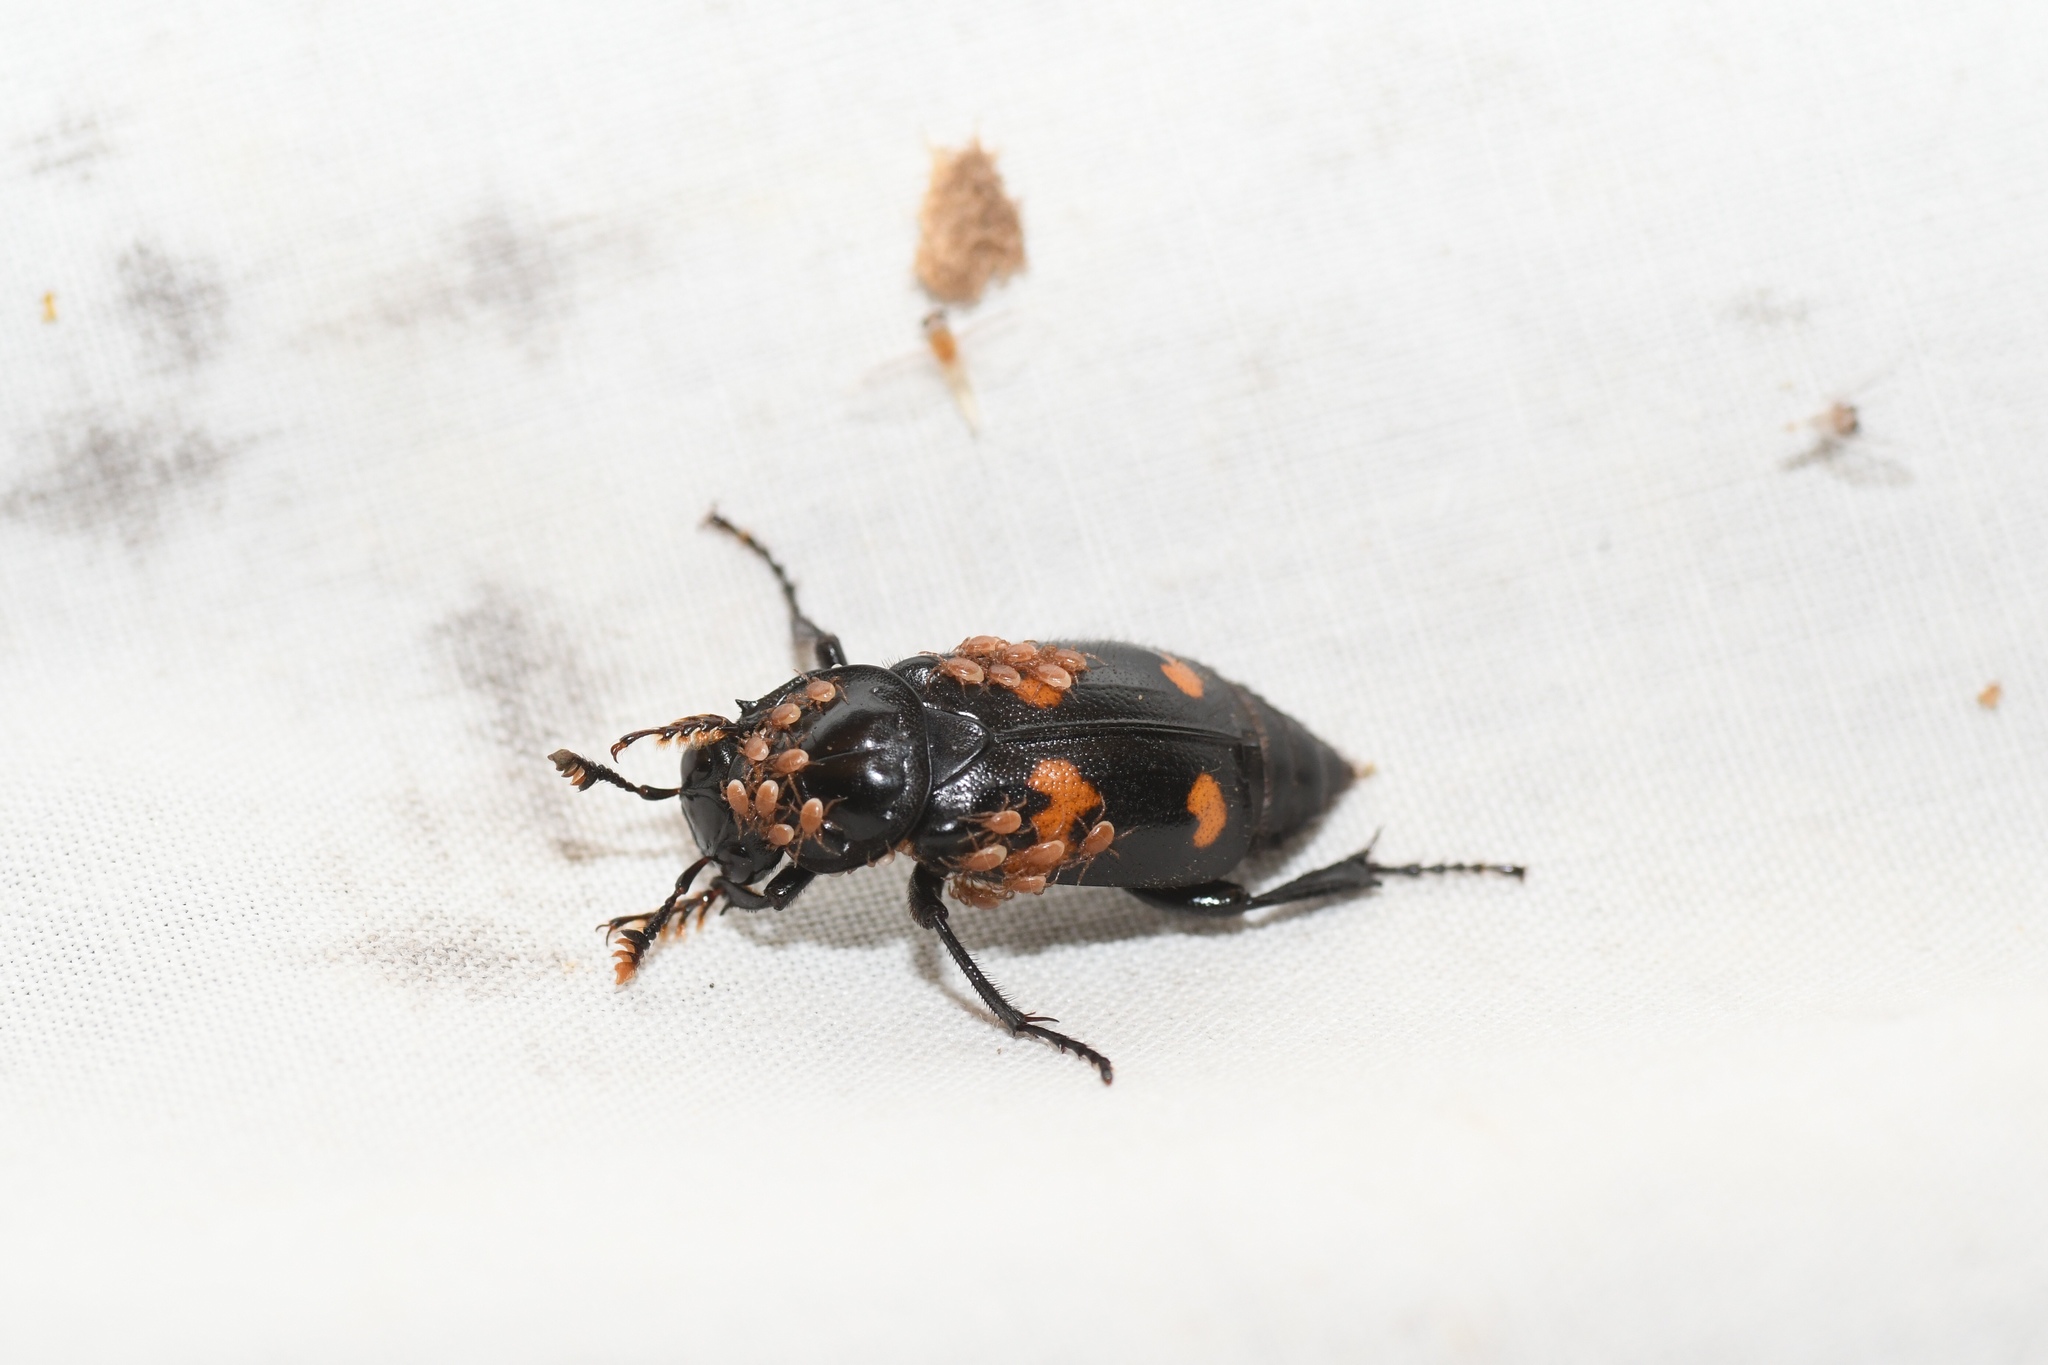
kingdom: Animalia
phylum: Arthropoda
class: Insecta
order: Coleoptera
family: Staphylinidae
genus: Nicrophorus
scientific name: Nicrophorus orbicollis
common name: Roundneck sexton beetle
